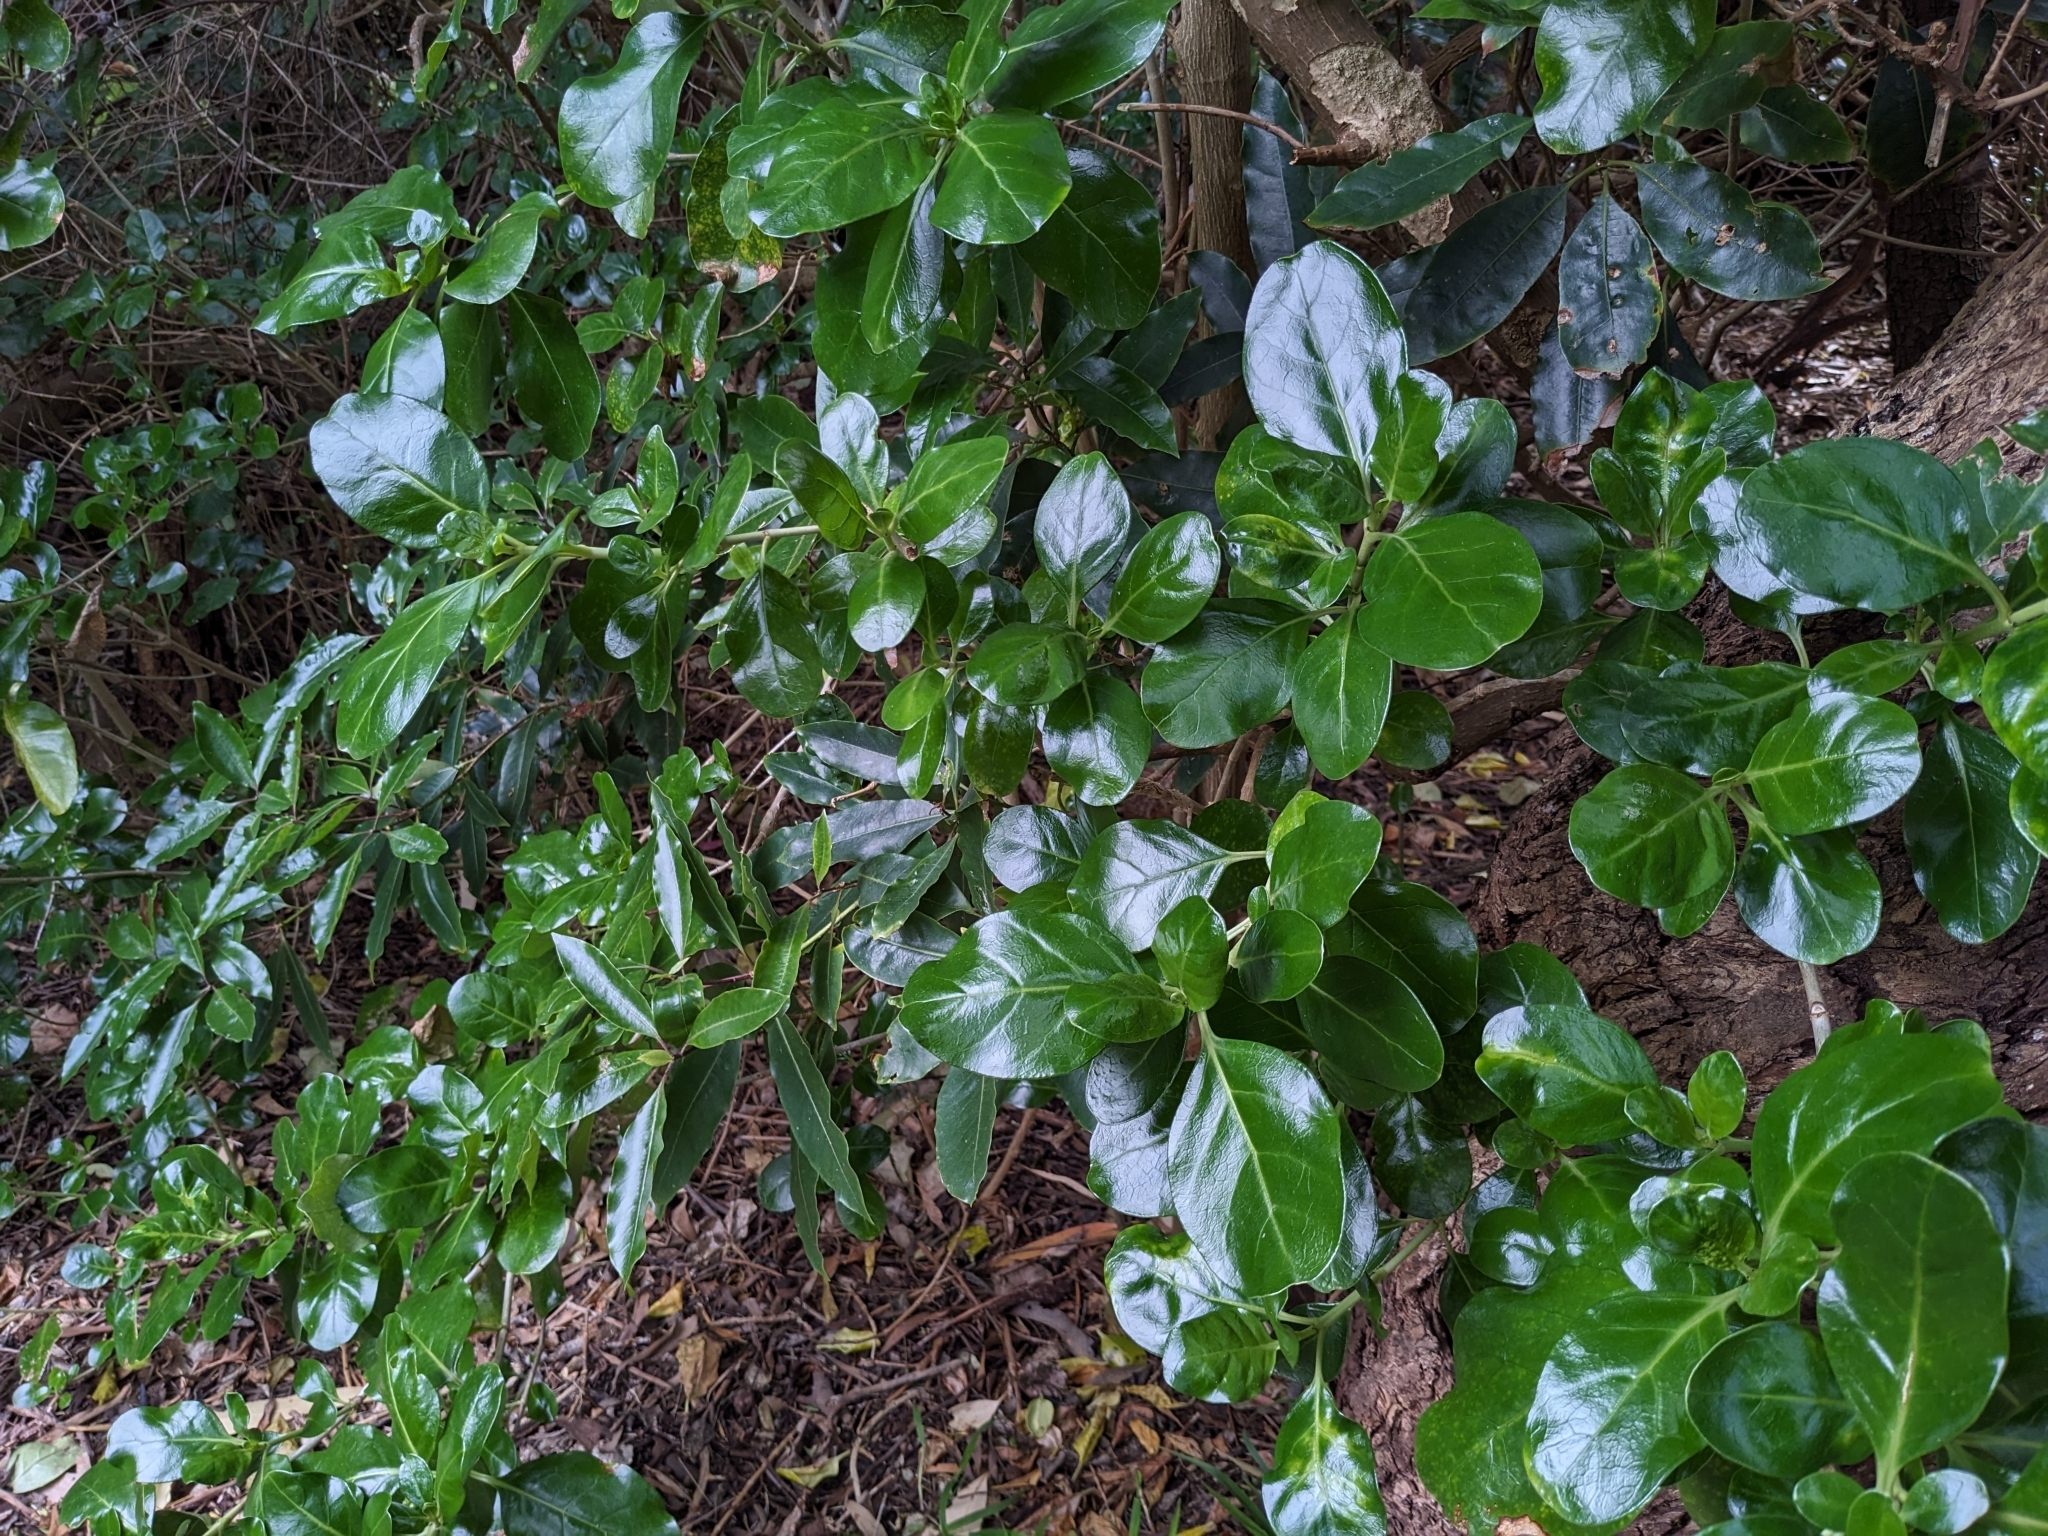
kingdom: Plantae
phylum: Tracheophyta
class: Magnoliopsida
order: Gentianales
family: Rubiaceae
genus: Coprosma
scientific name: Coprosma repens
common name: Tree bedstraw
